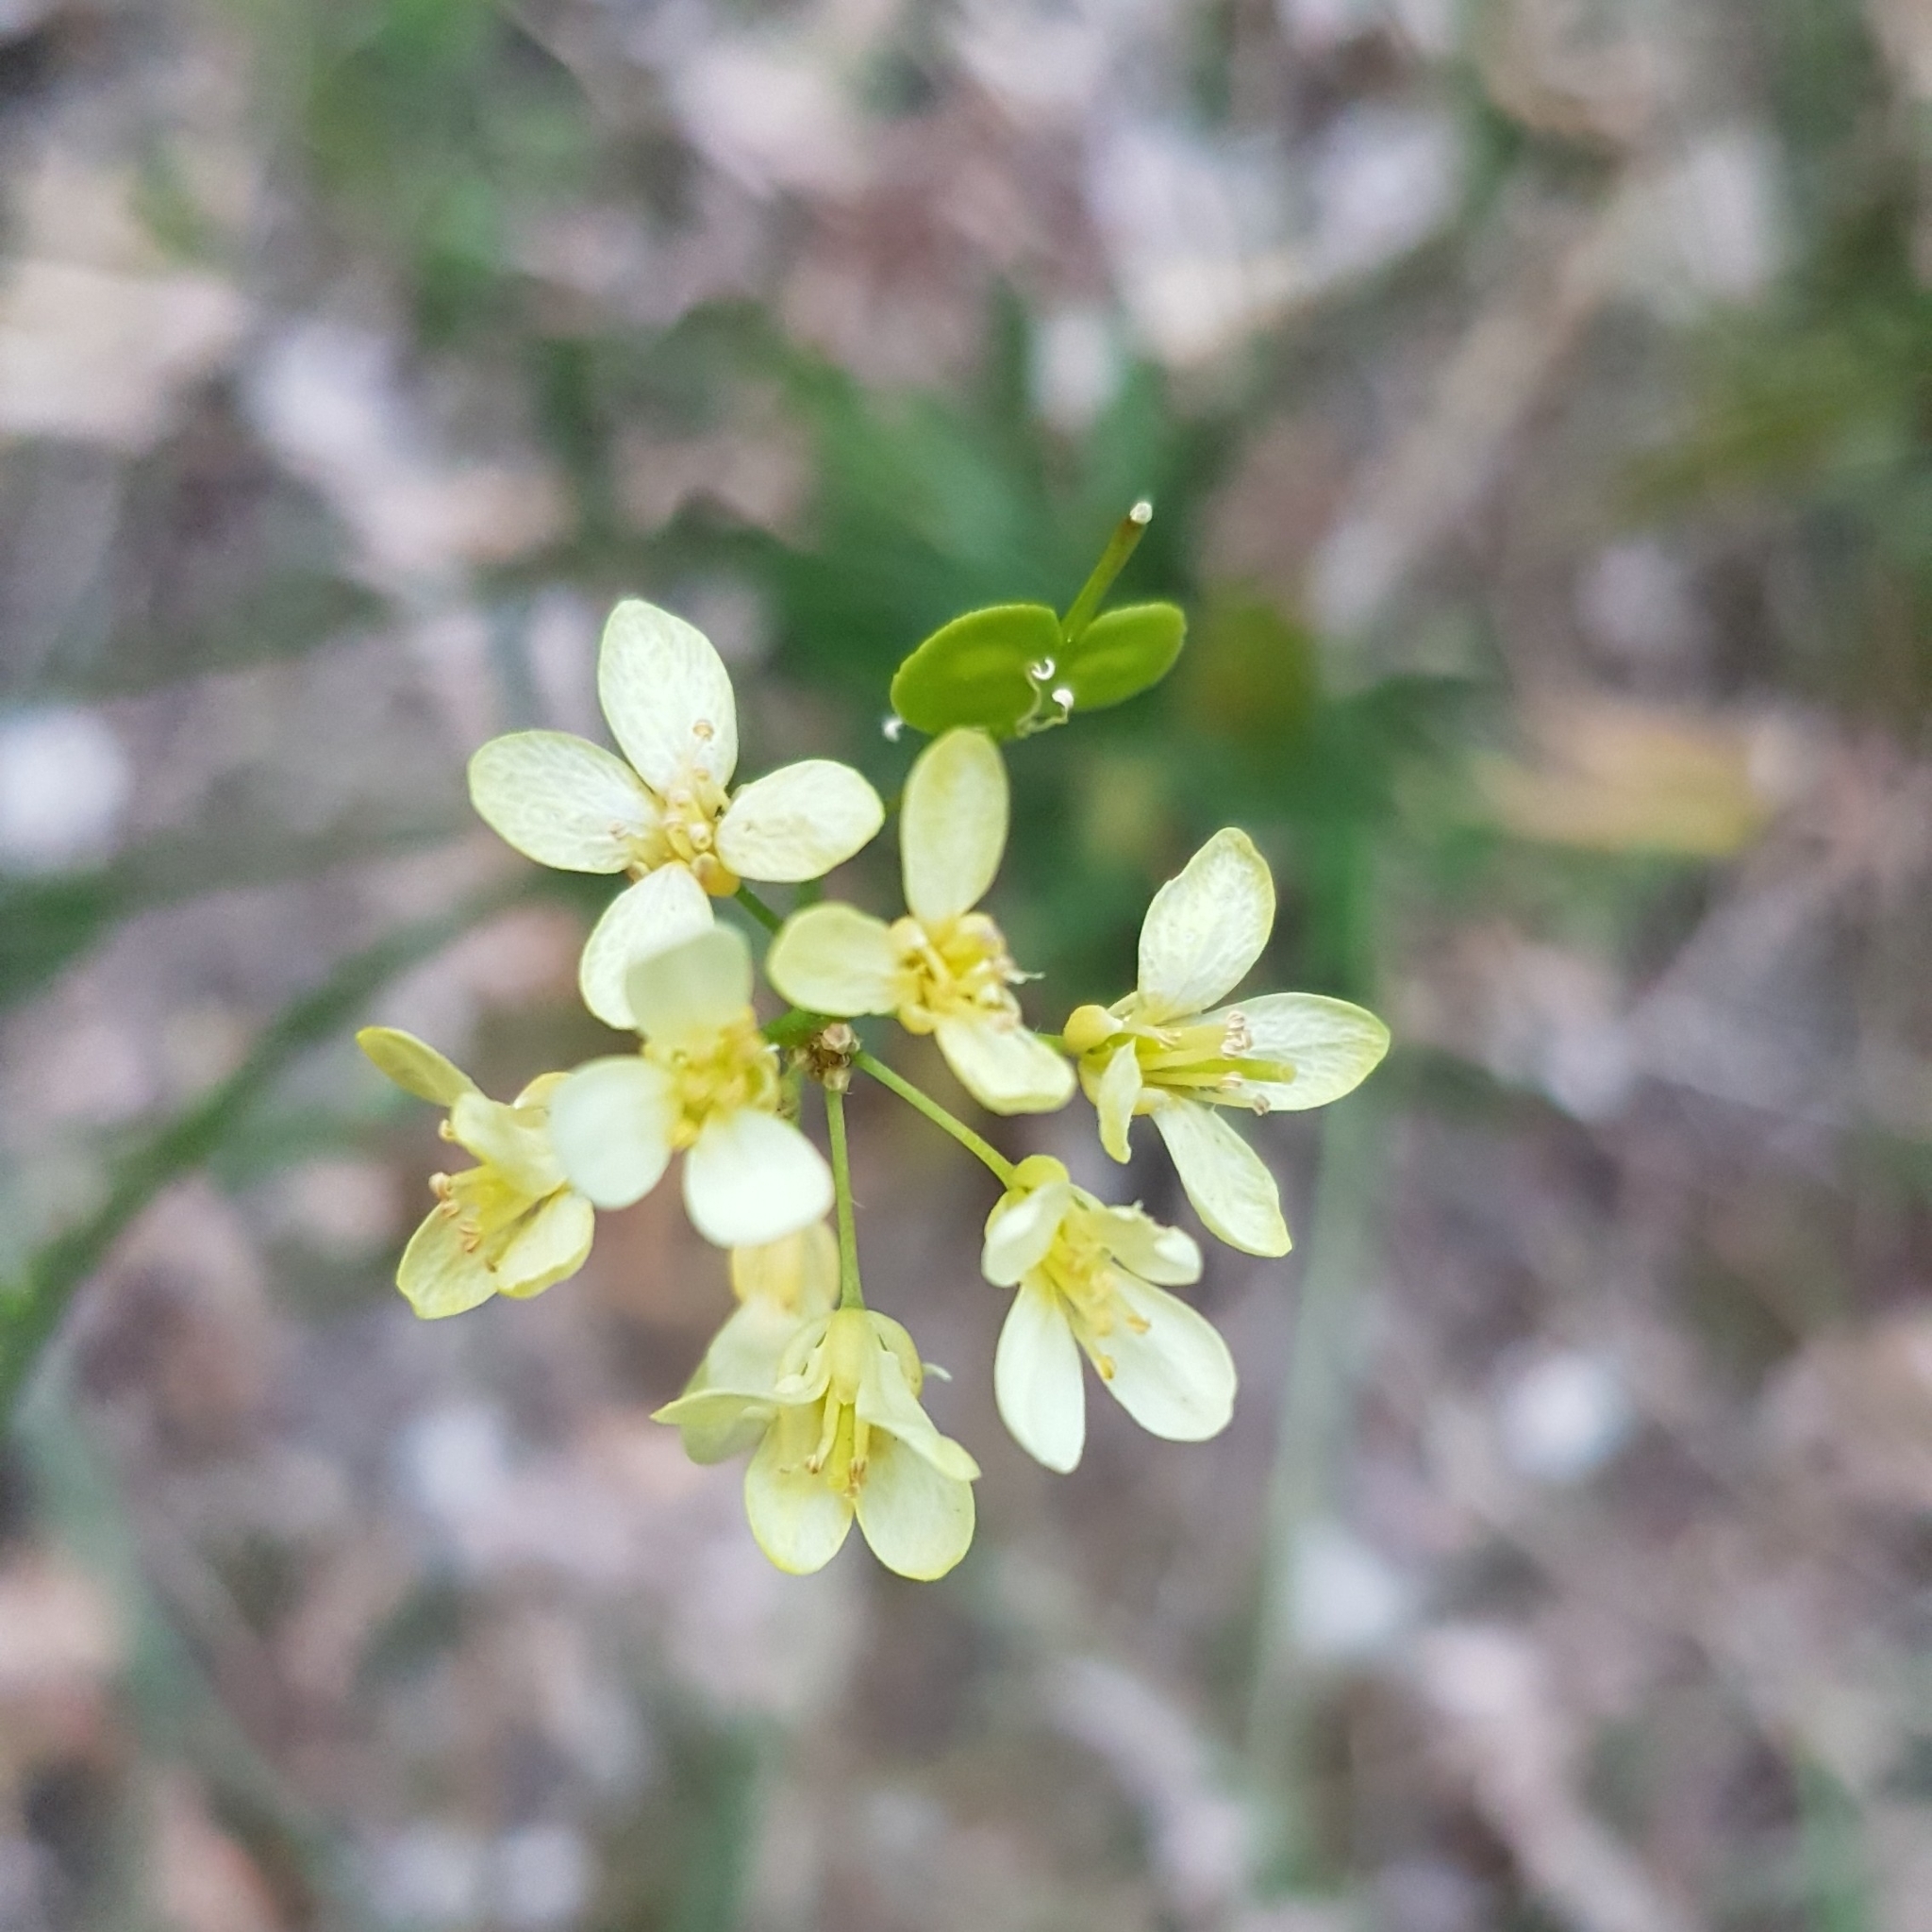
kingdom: Plantae
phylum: Tracheophyta
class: Magnoliopsida
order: Brassicales
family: Brassicaceae
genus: Biscutella
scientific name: Biscutella laevigata
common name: Buckler mustard
